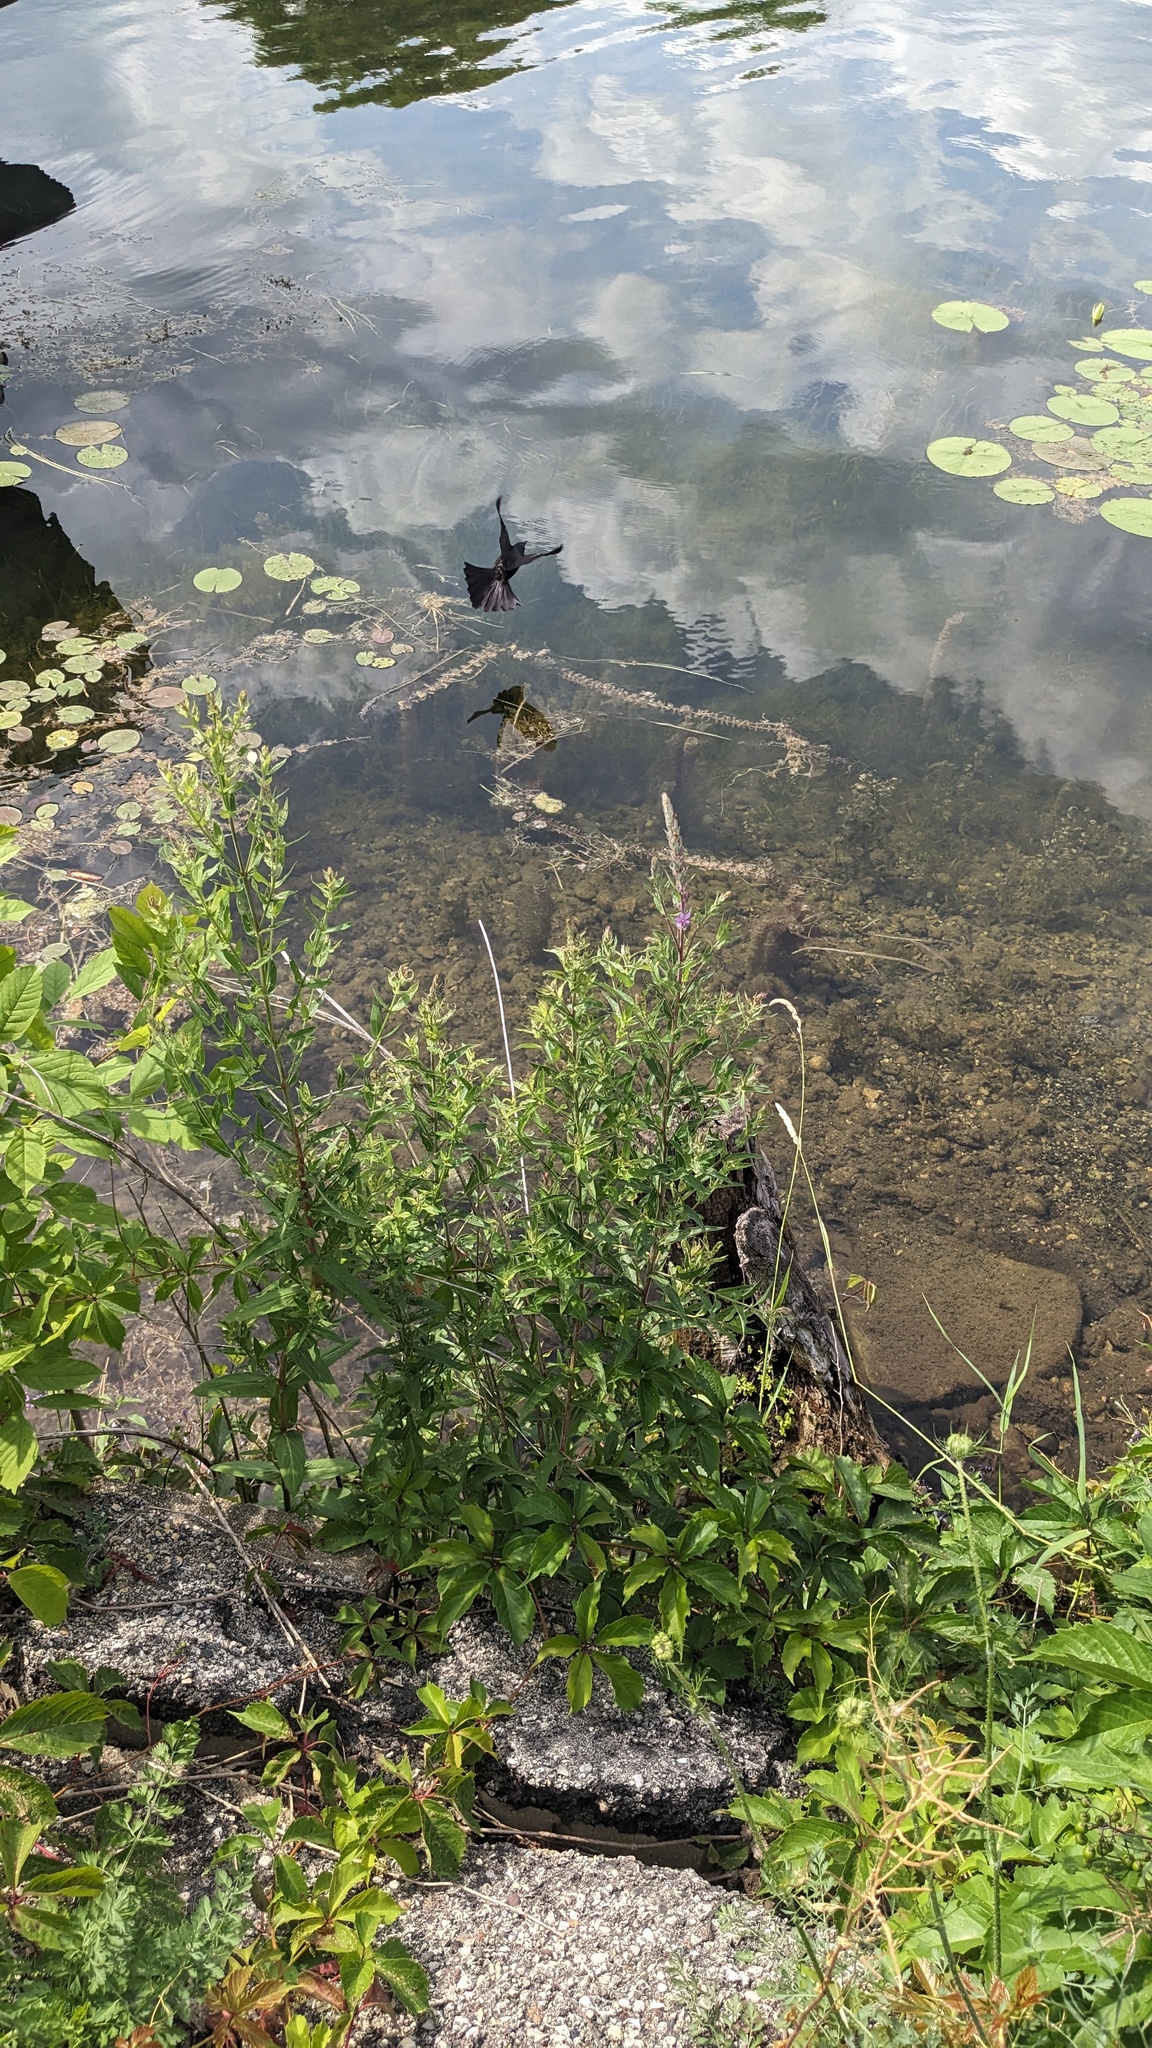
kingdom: Animalia
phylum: Chordata
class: Aves
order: Passeriformes
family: Icteridae
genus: Quiscalus
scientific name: Quiscalus quiscula
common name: Common grackle
